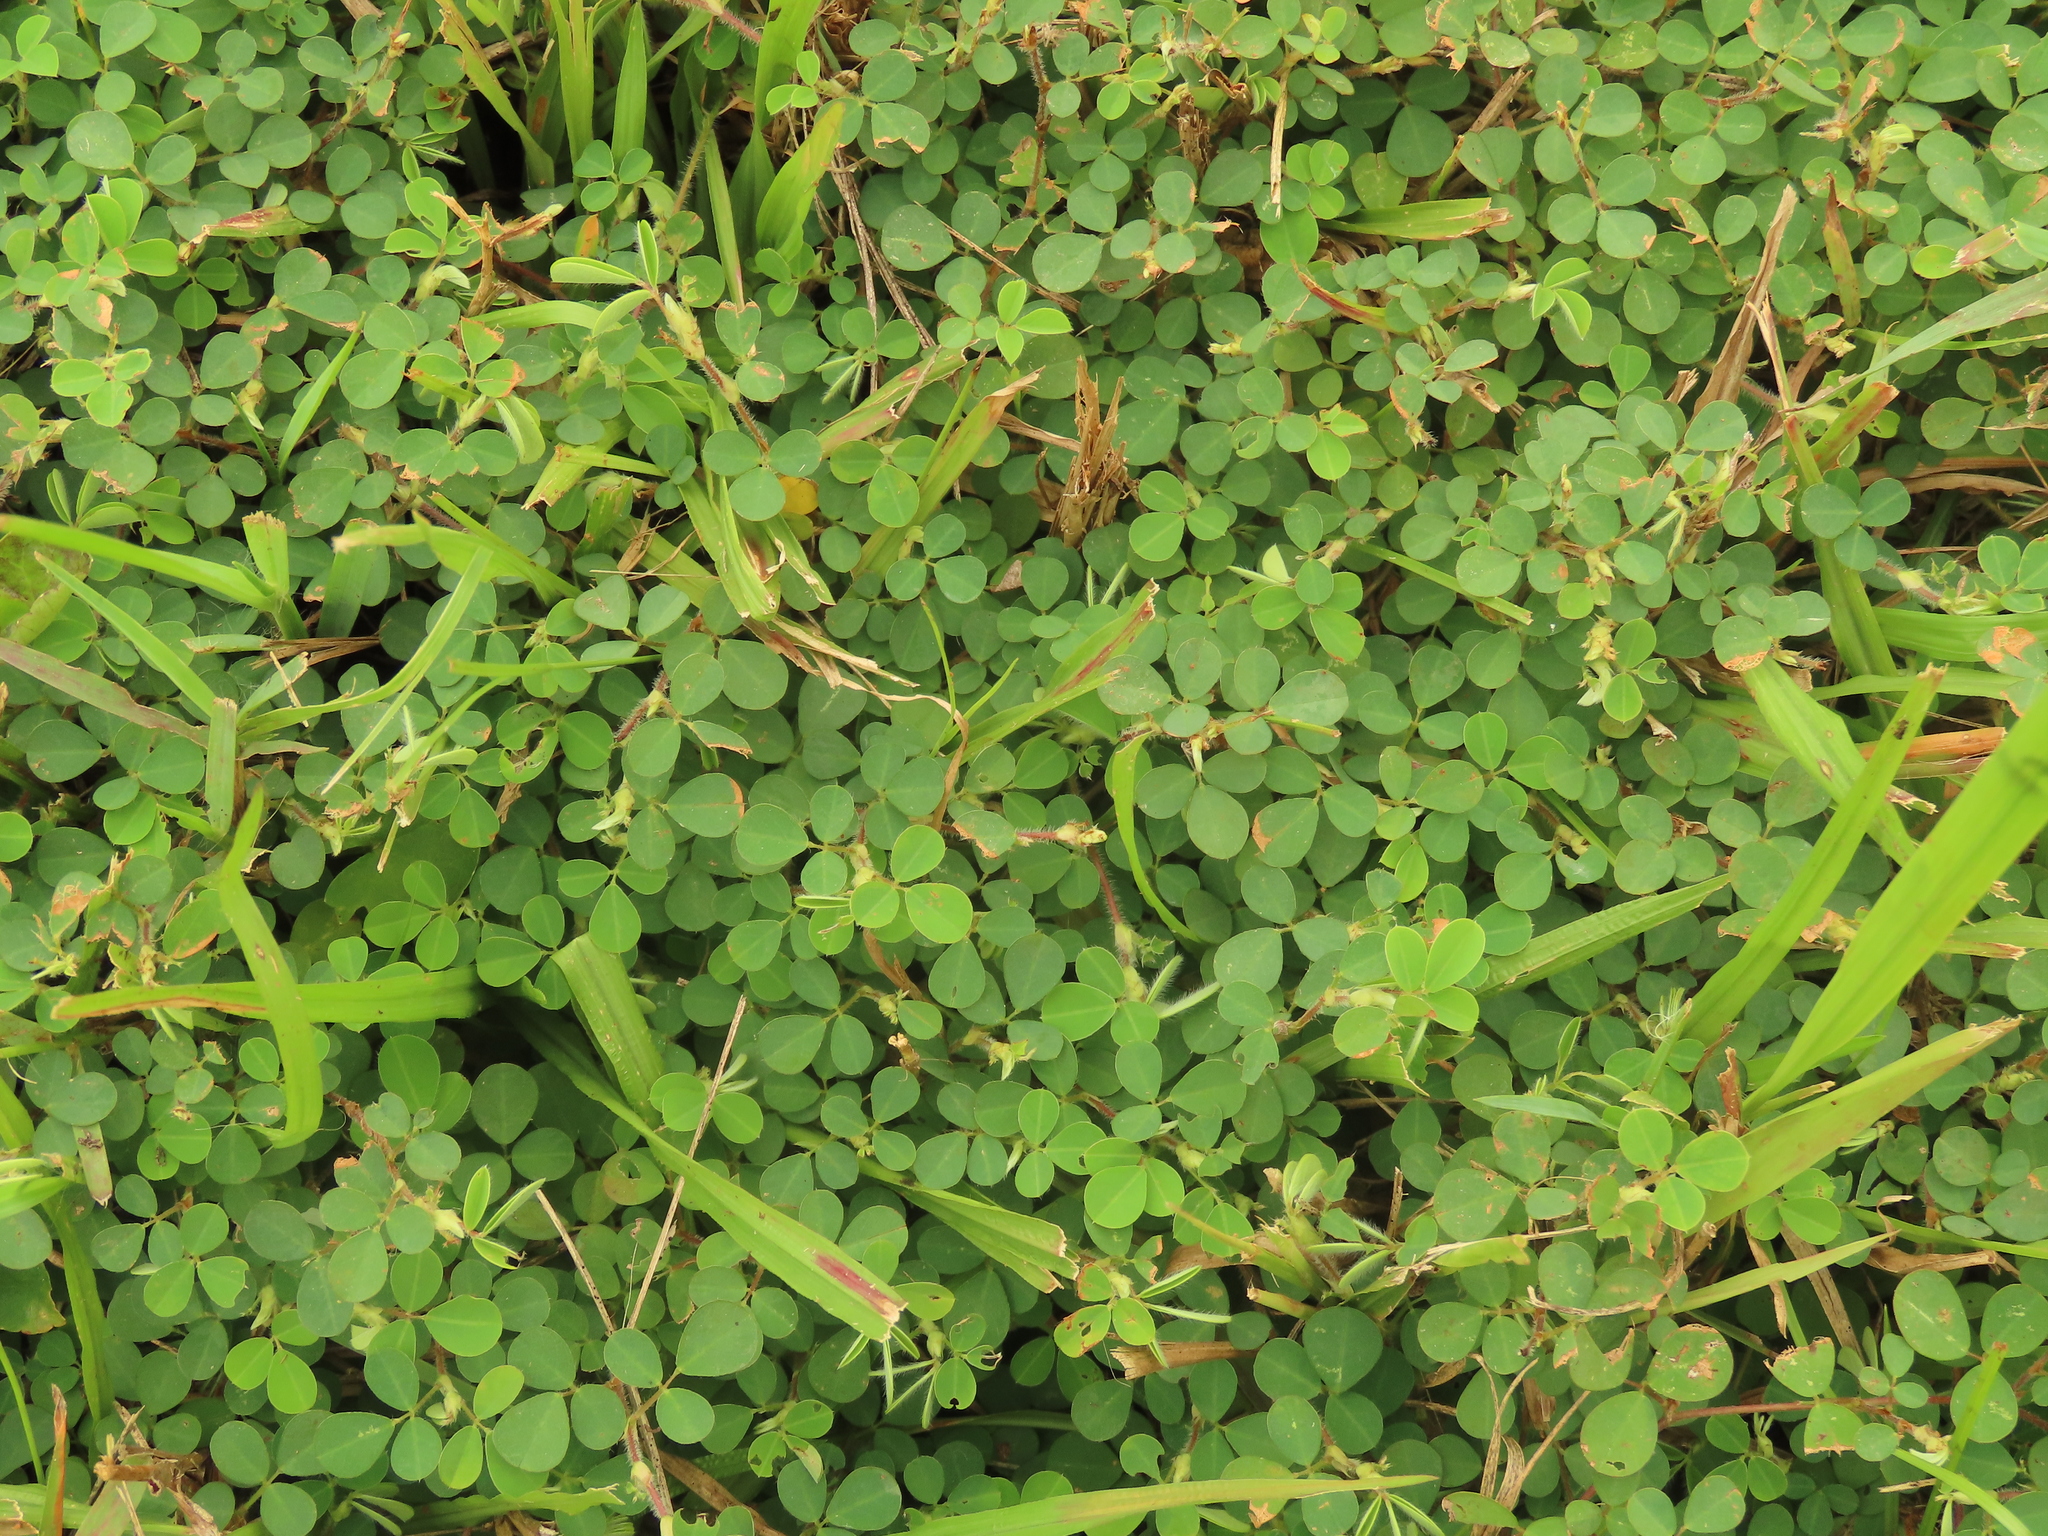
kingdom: Plantae
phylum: Tracheophyta
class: Magnoliopsida
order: Fabales
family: Fabaceae
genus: Grona
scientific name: Grona triflora
